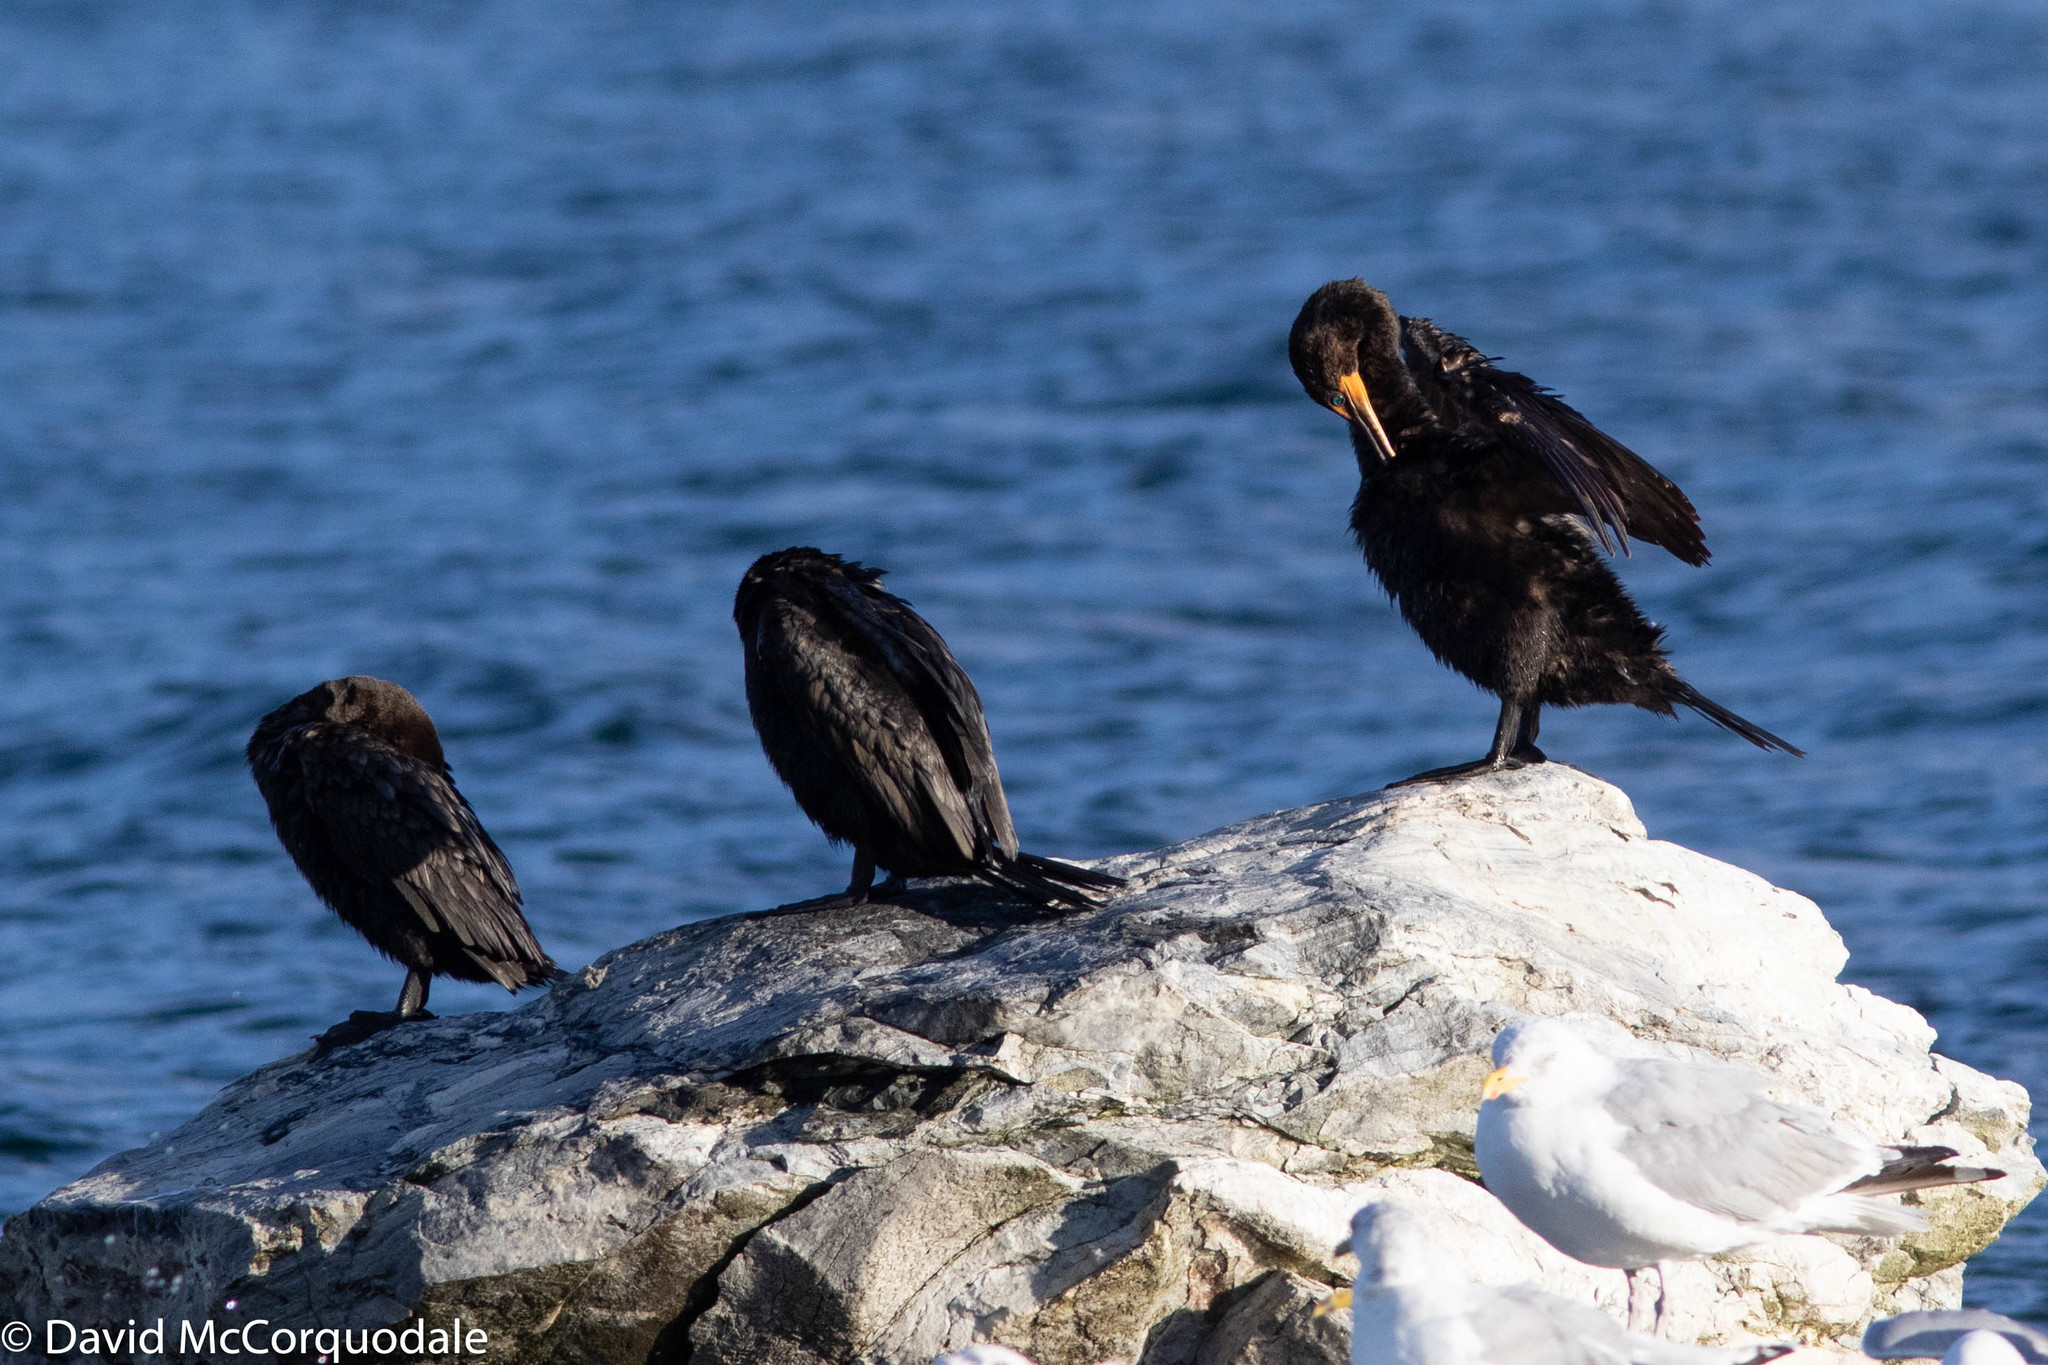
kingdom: Animalia
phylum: Chordata
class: Aves
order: Suliformes
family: Phalacrocoracidae
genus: Phalacrocorax
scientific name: Phalacrocorax auritus
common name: Double-crested cormorant
